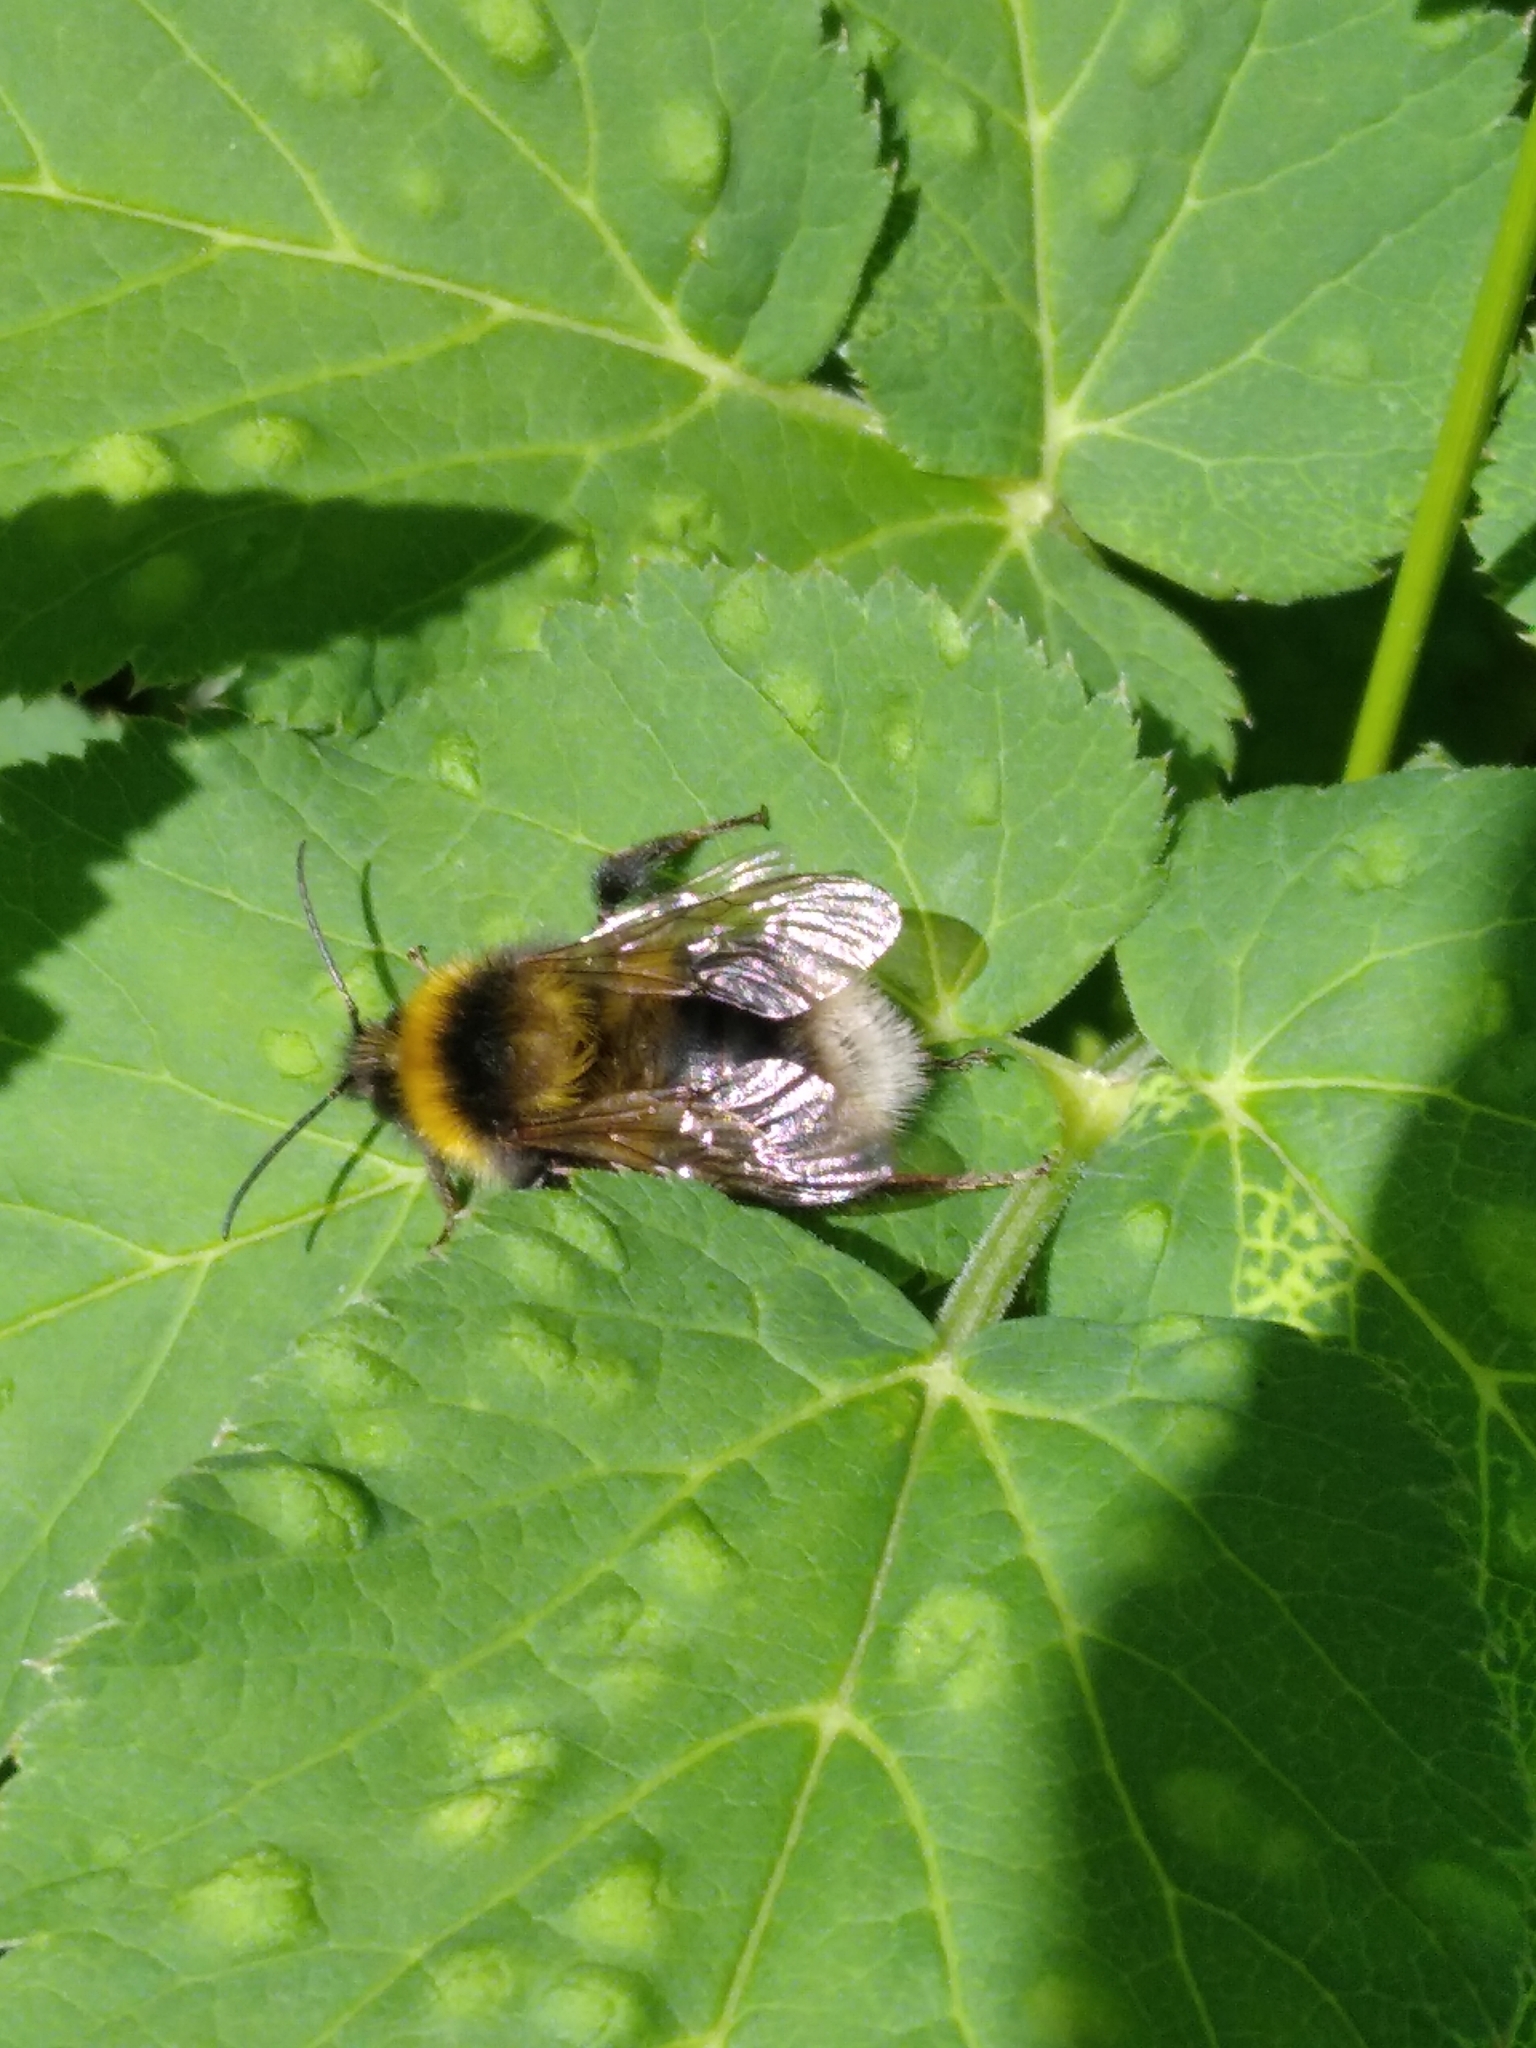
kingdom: Animalia
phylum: Arthropoda
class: Insecta
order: Hymenoptera
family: Apidae
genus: Bombus
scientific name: Bombus hortorum
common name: Garden bumblebee
